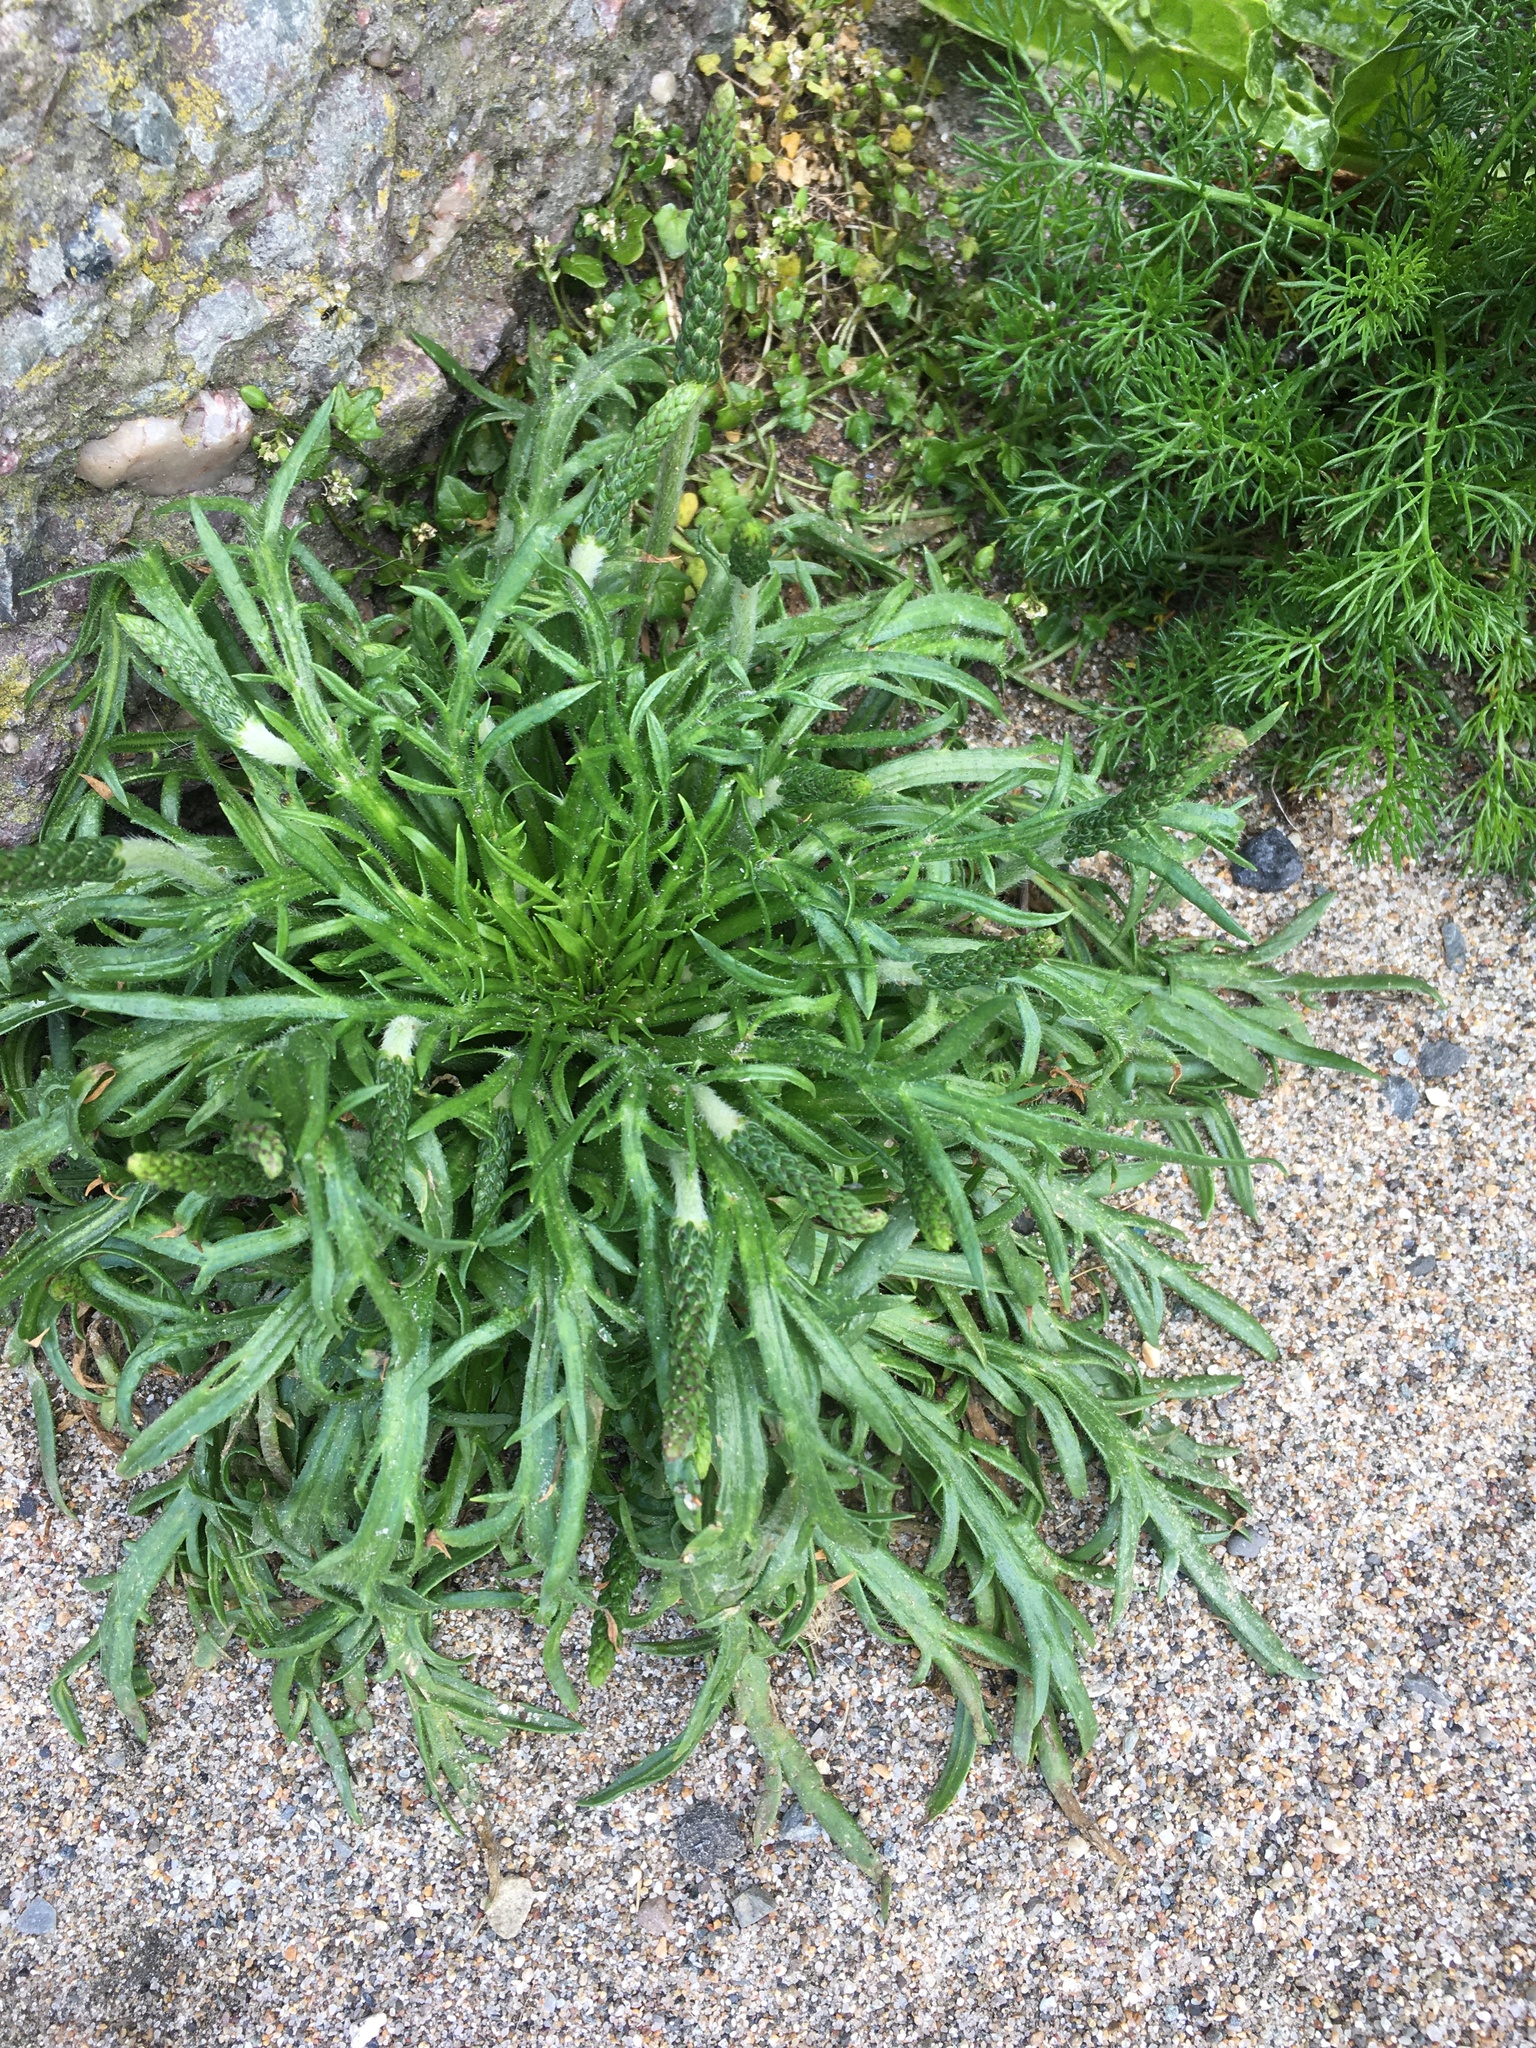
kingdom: Plantae
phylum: Tracheophyta
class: Magnoliopsida
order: Lamiales
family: Plantaginaceae
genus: Plantago
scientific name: Plantago coronopus
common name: Buck's-horn plantain
